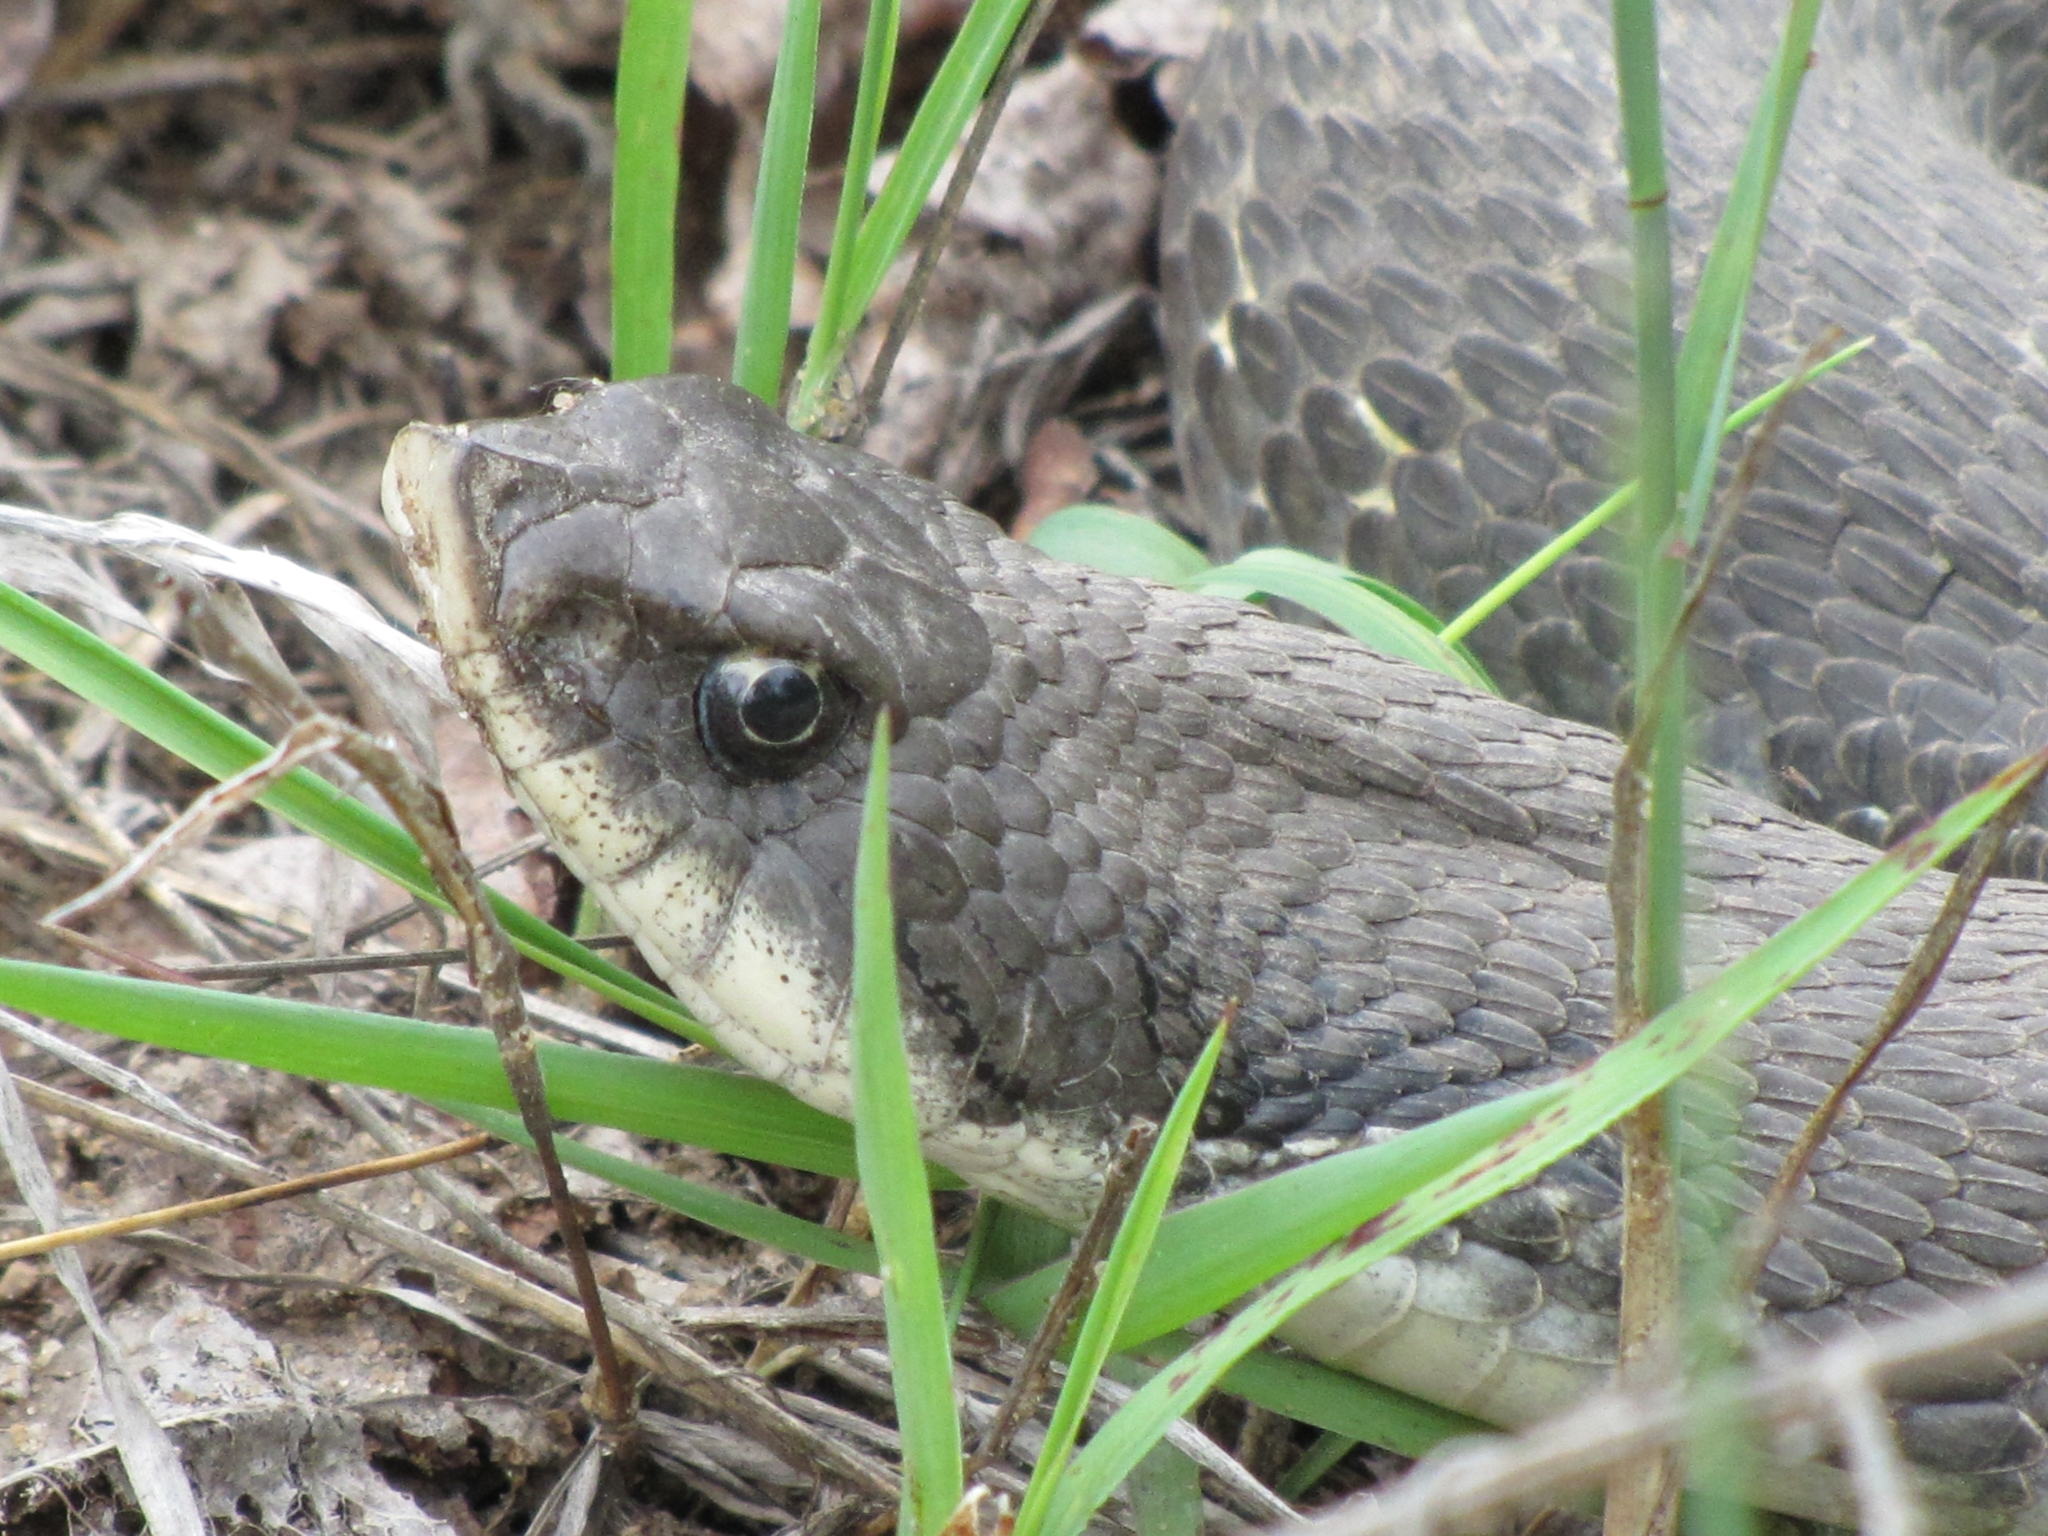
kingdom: Animalia
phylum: Chordata
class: Squamata
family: Colubridae
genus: Heterodon
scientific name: Heterodon platirhinos
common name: Eastern hognose snake
